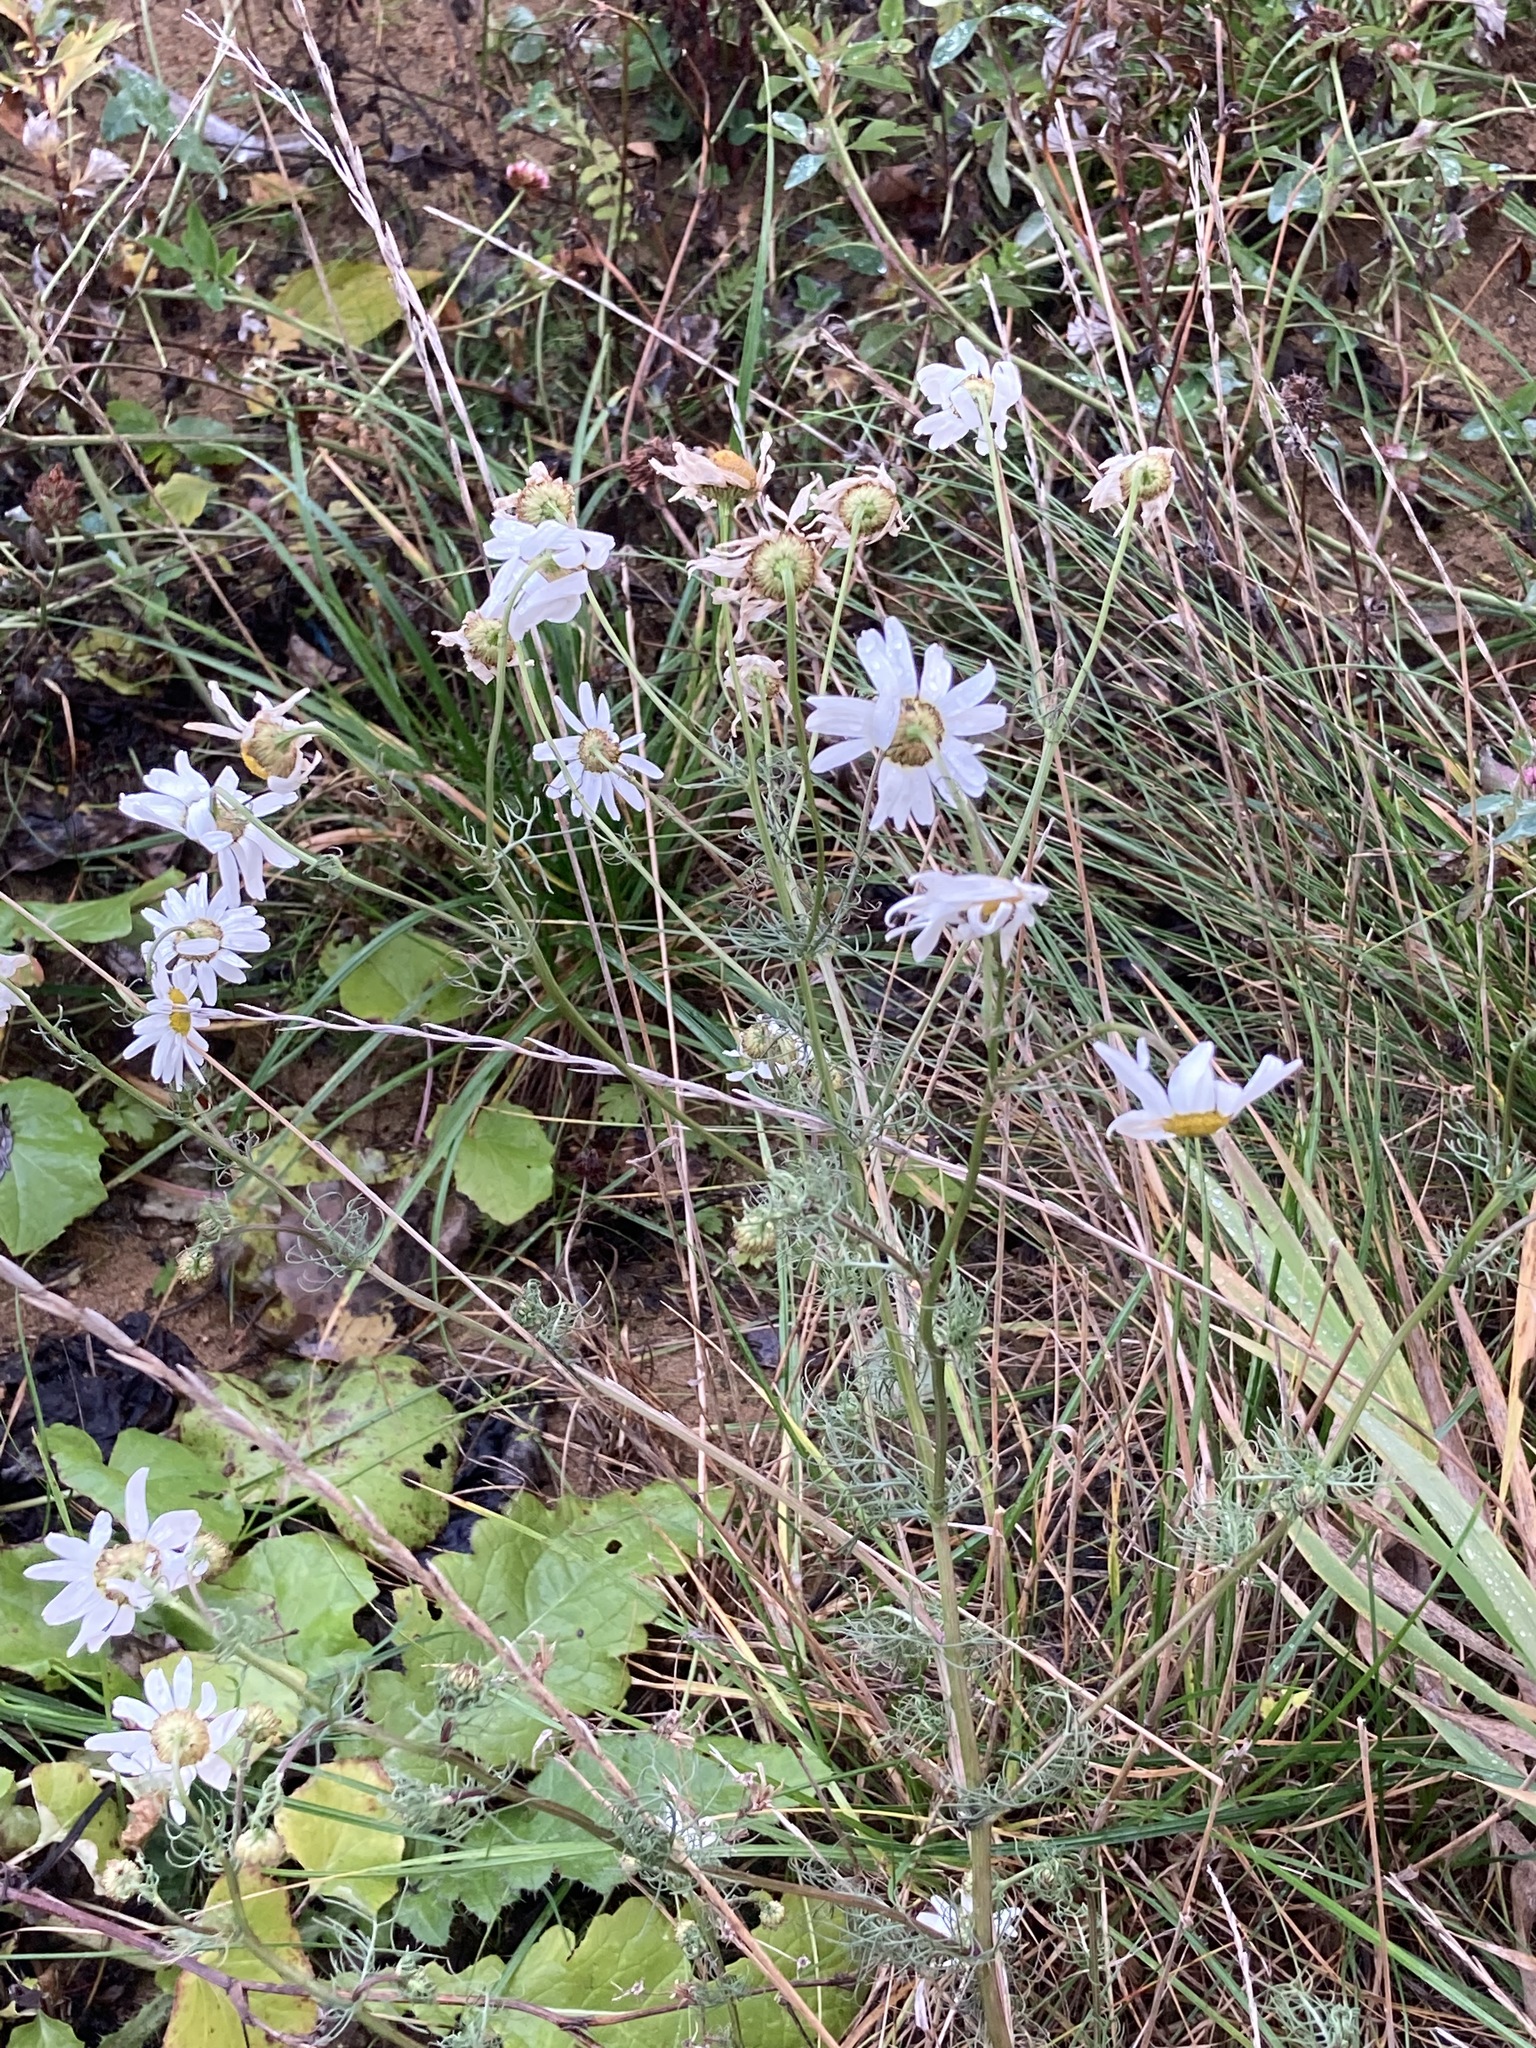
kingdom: Plantae
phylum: Tracheophyta
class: Magnoliopsida
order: Asterales
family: Asteraceae
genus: Tripleurospermum
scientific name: Tripleurospermum inodorum
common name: Scentless mayweed
